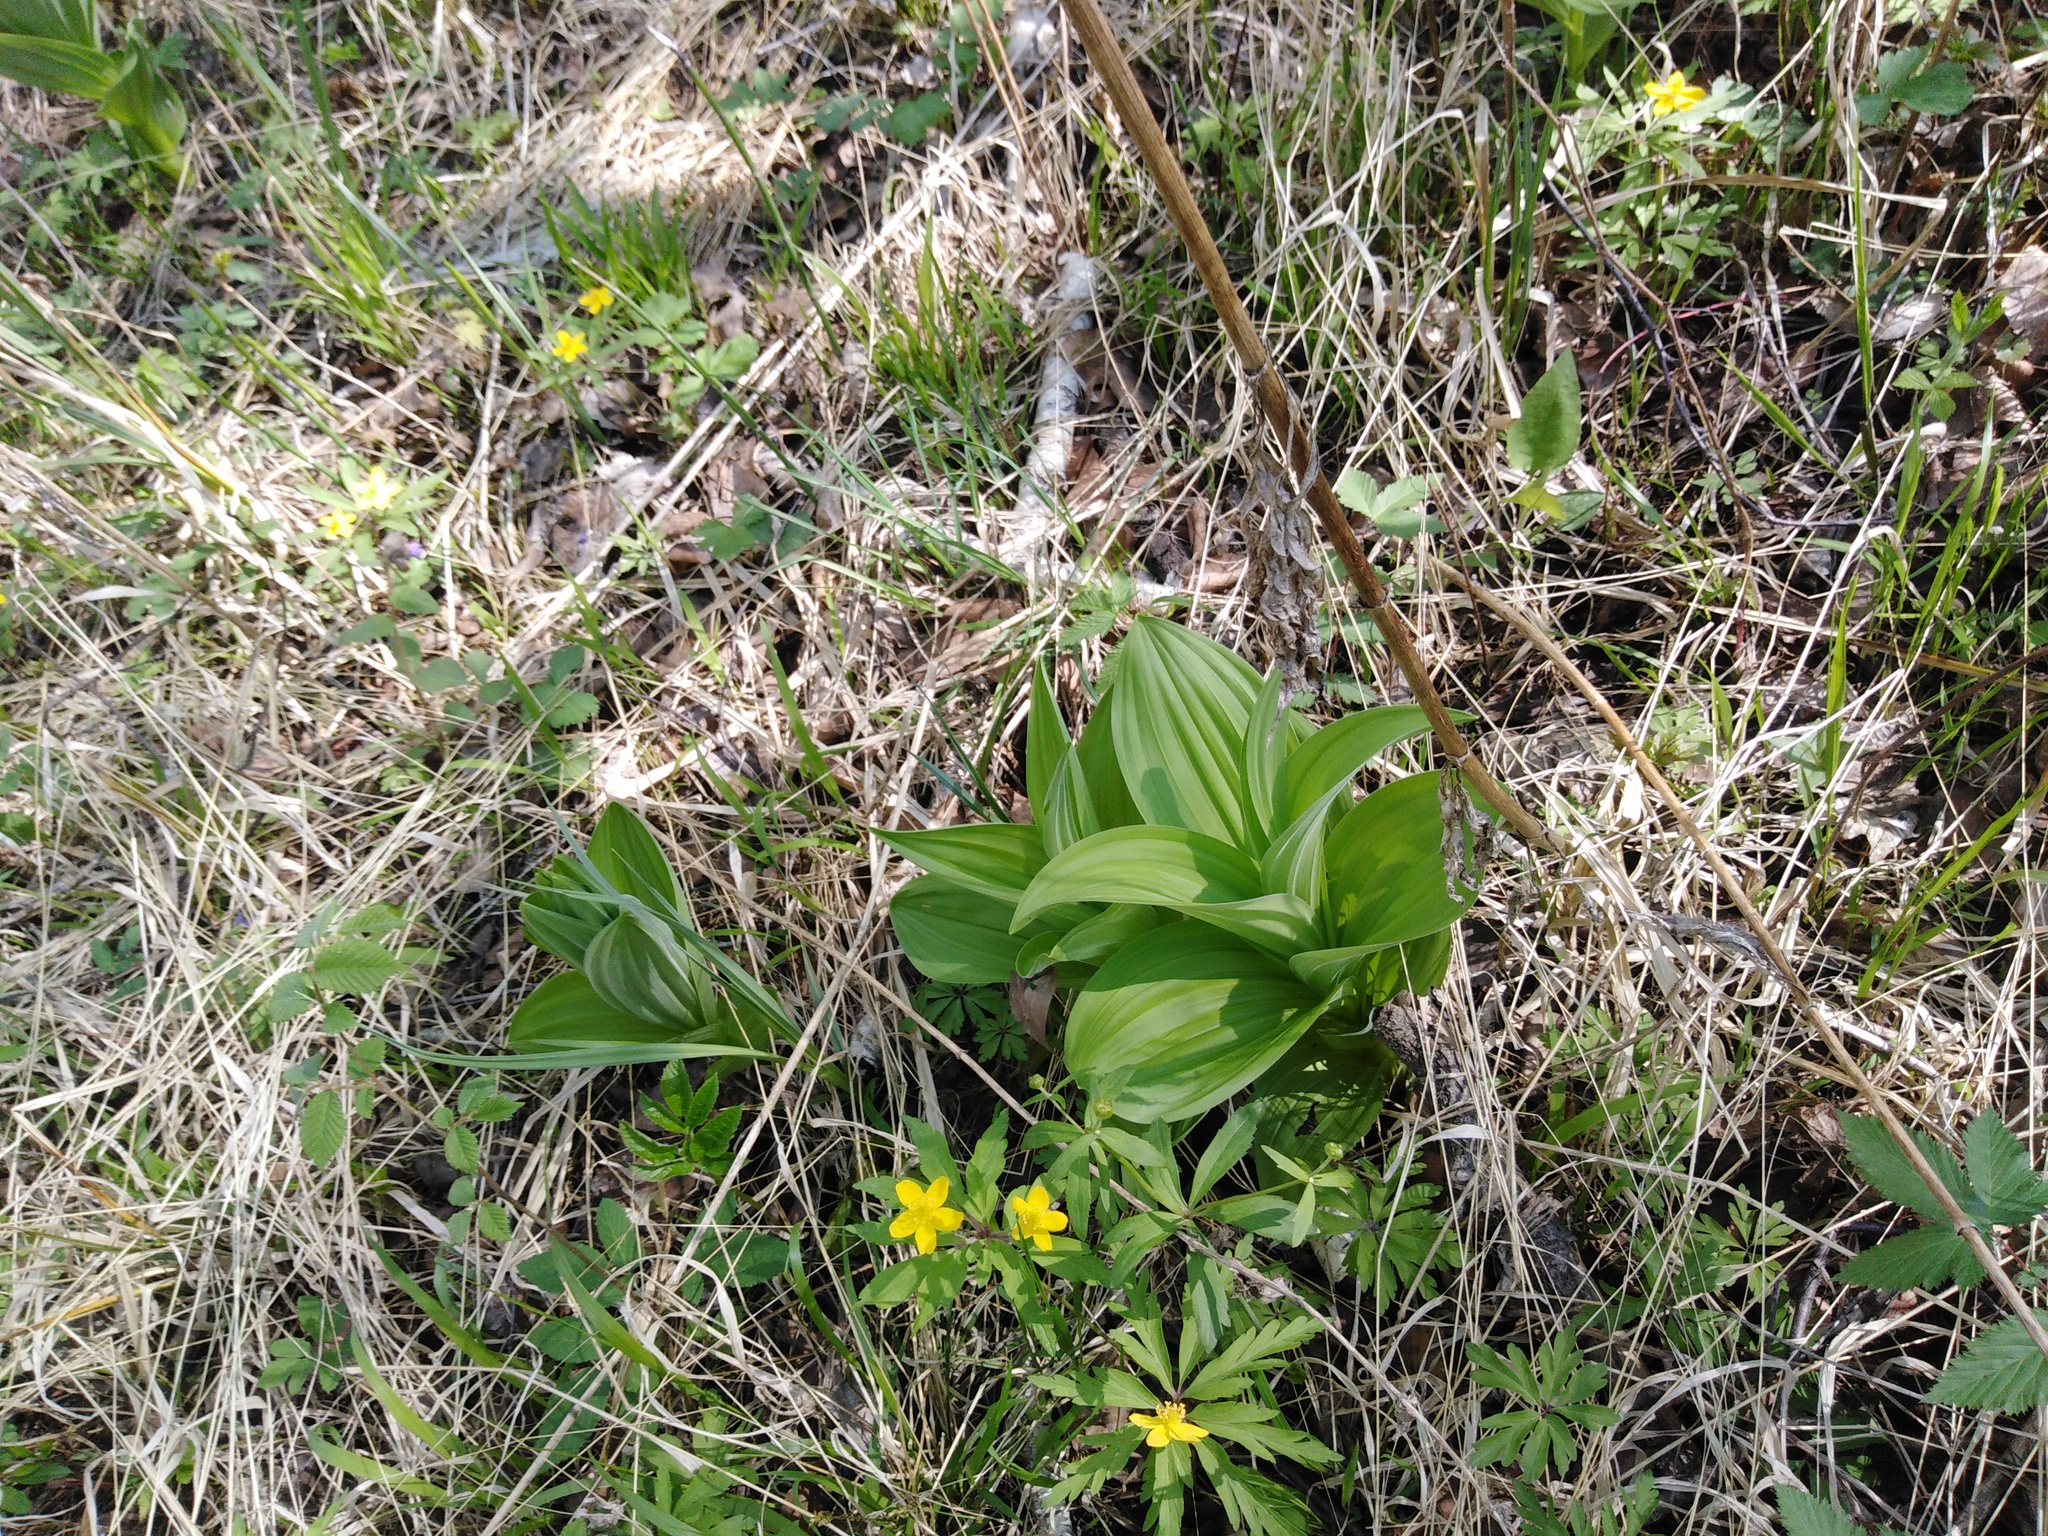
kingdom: Plantae
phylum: Tracheophyta
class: Liliopsida
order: Liliales
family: Melanthiaceae
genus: Veratrum
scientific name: Veratrum lobelianum
